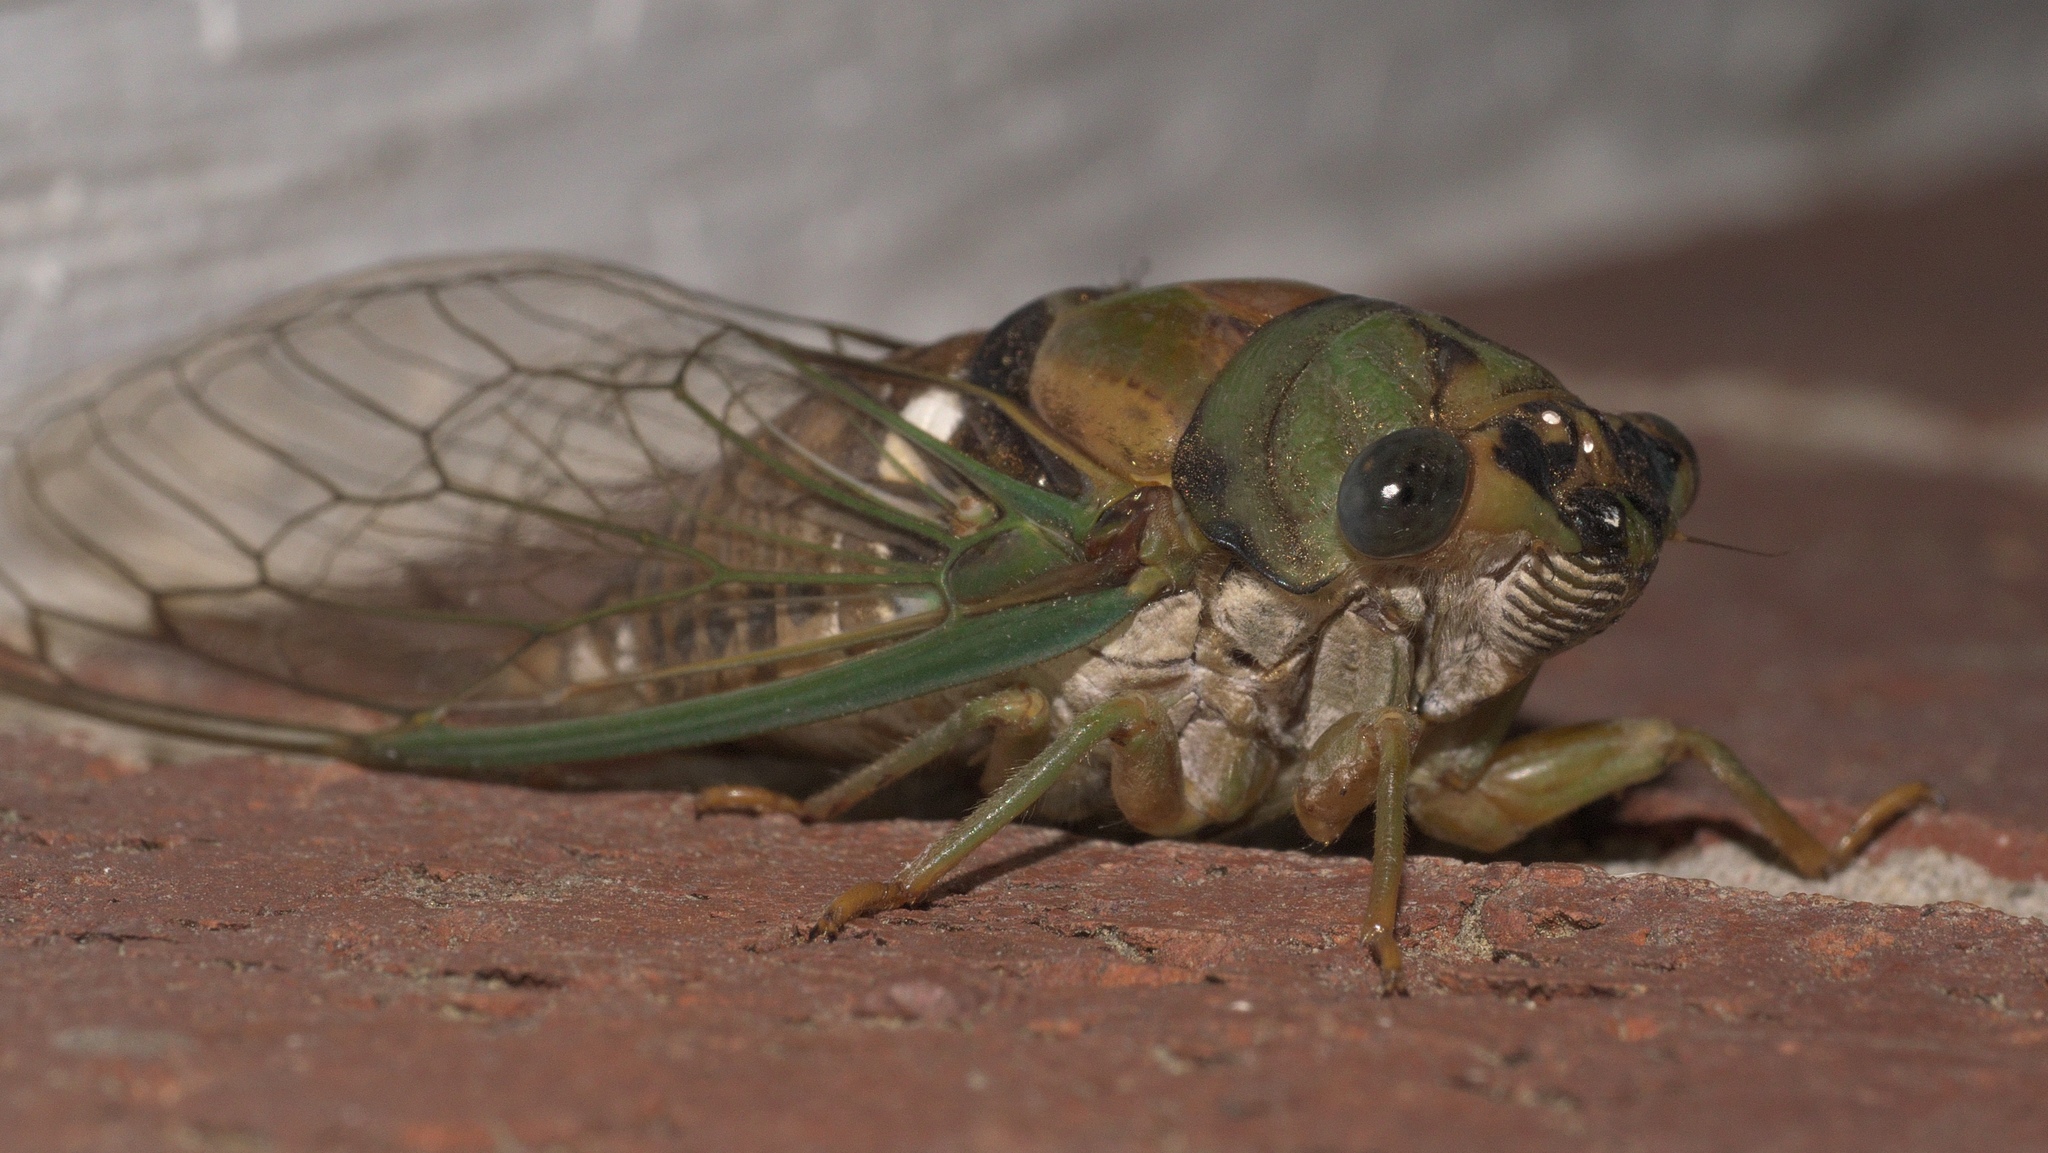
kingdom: Animalia
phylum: Arthropoda
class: Insecta
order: Hemiptera
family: Cicadidae
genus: Neotibicen
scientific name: Neotibicen pruinosus
